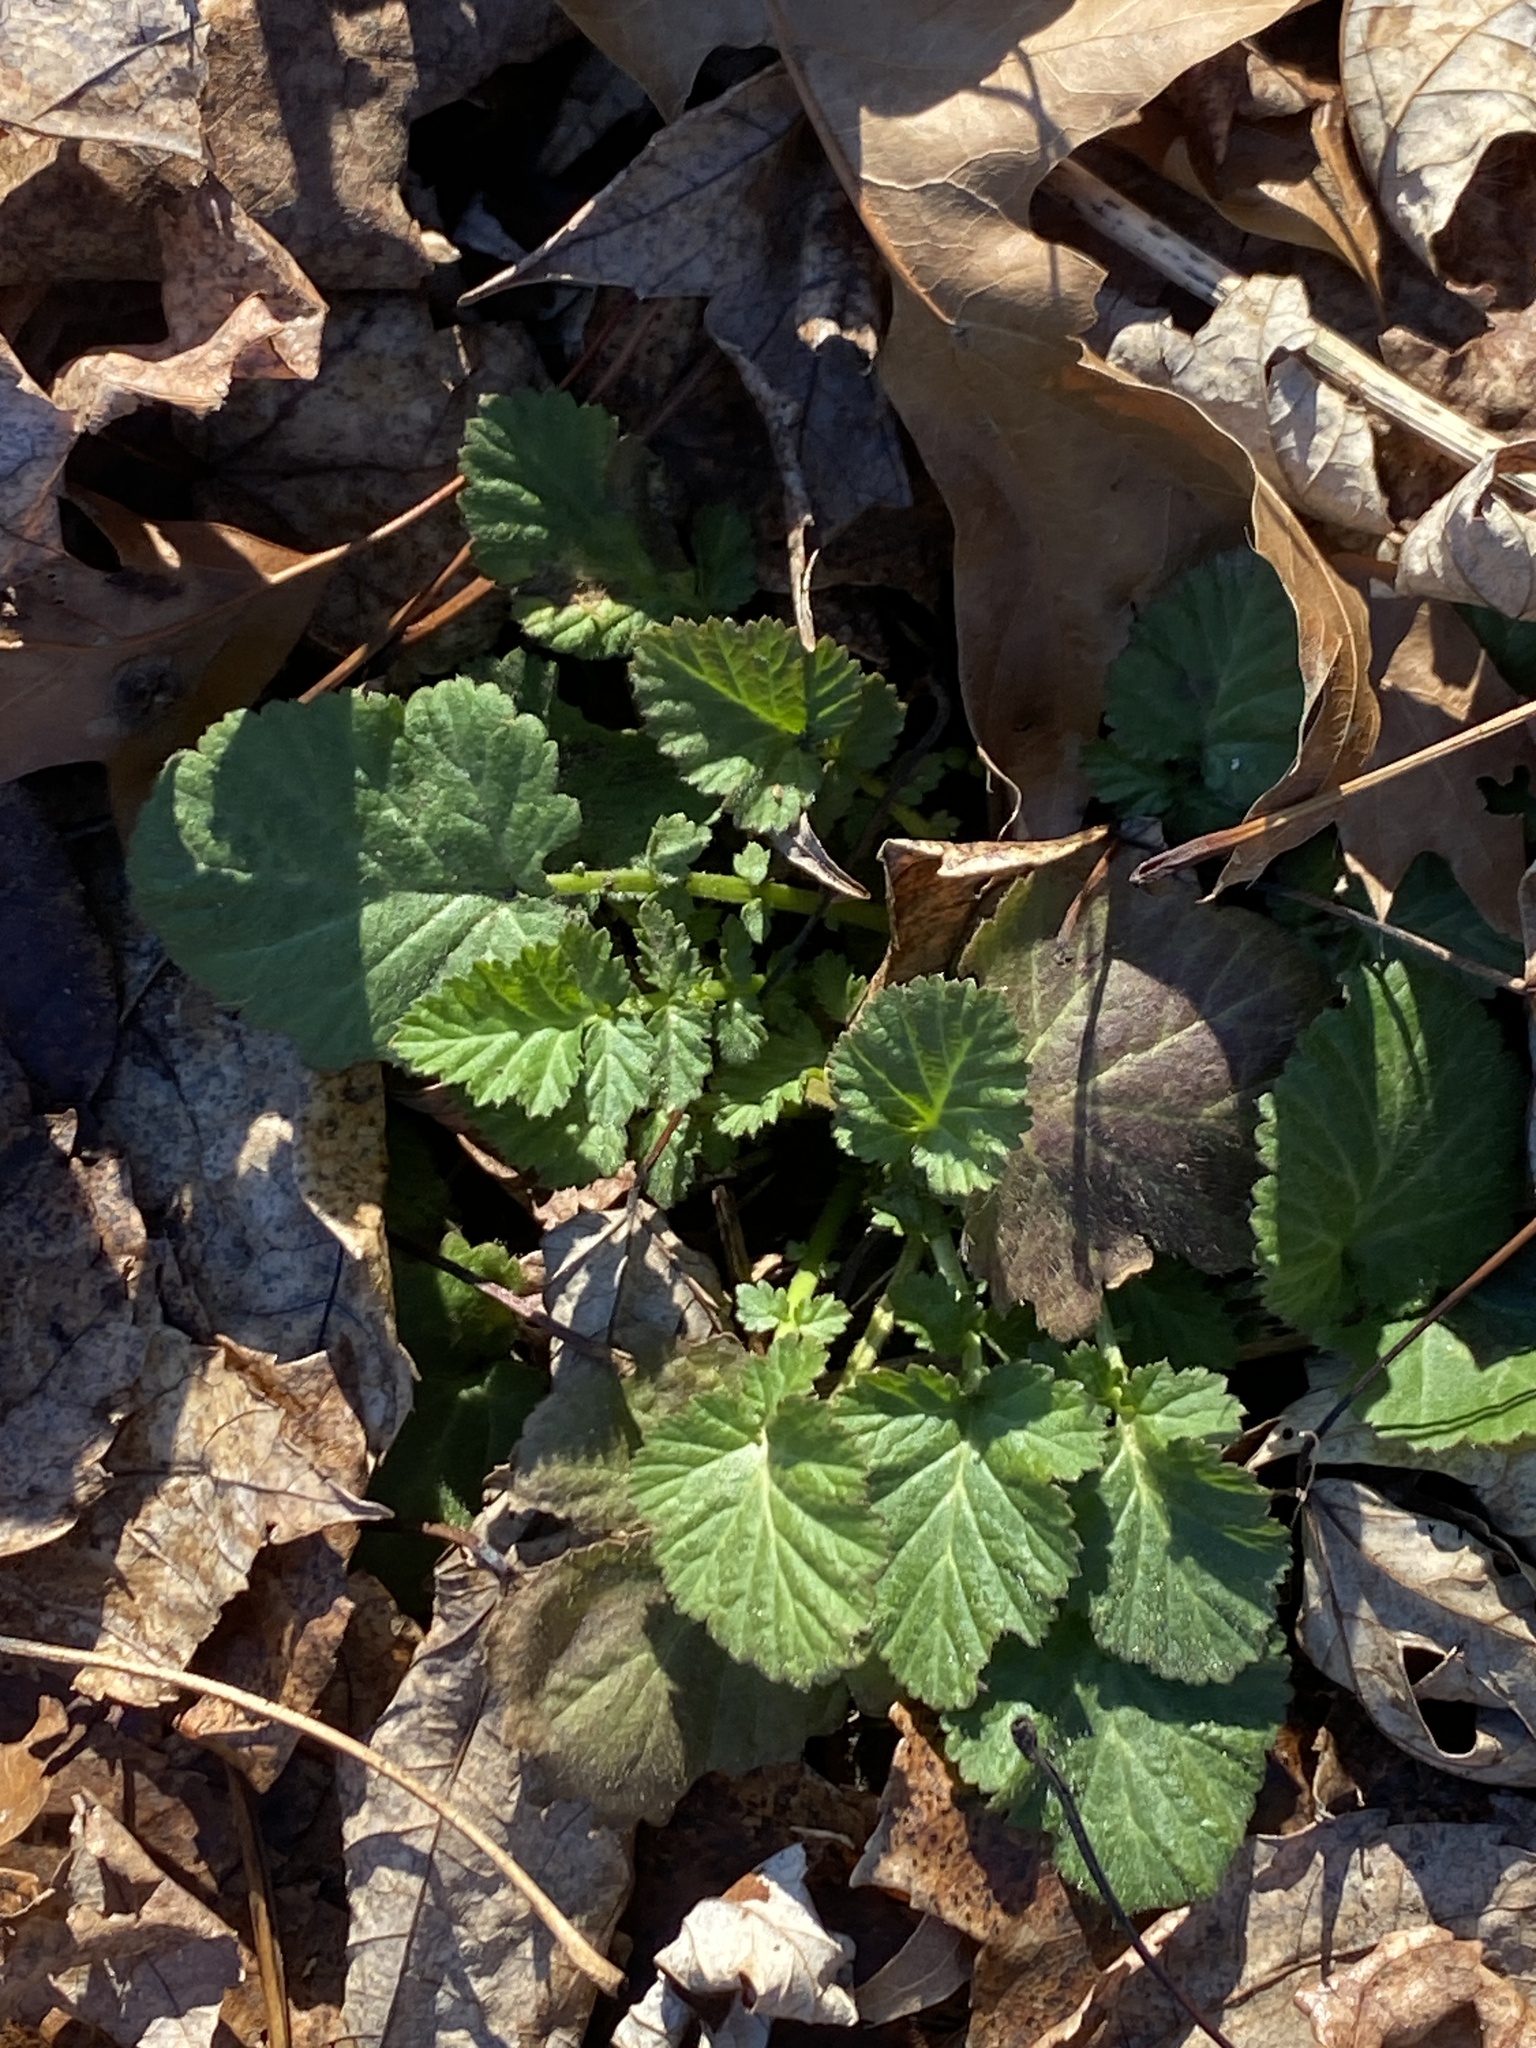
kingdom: Plantae
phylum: Tracheophyta
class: Magnoliopsida
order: Rosales
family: Rosaceae
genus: Geum
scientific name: Geum canadense
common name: White avens
